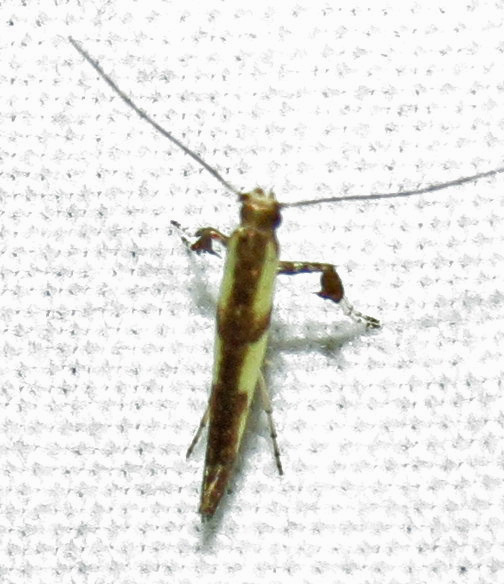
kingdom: Animalia
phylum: Arthropoda
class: Insecta
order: Lepidoptera
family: Gracillariidae
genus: Caloptilia
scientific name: Caloptilia blandella
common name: Walnut caloptilia moth
